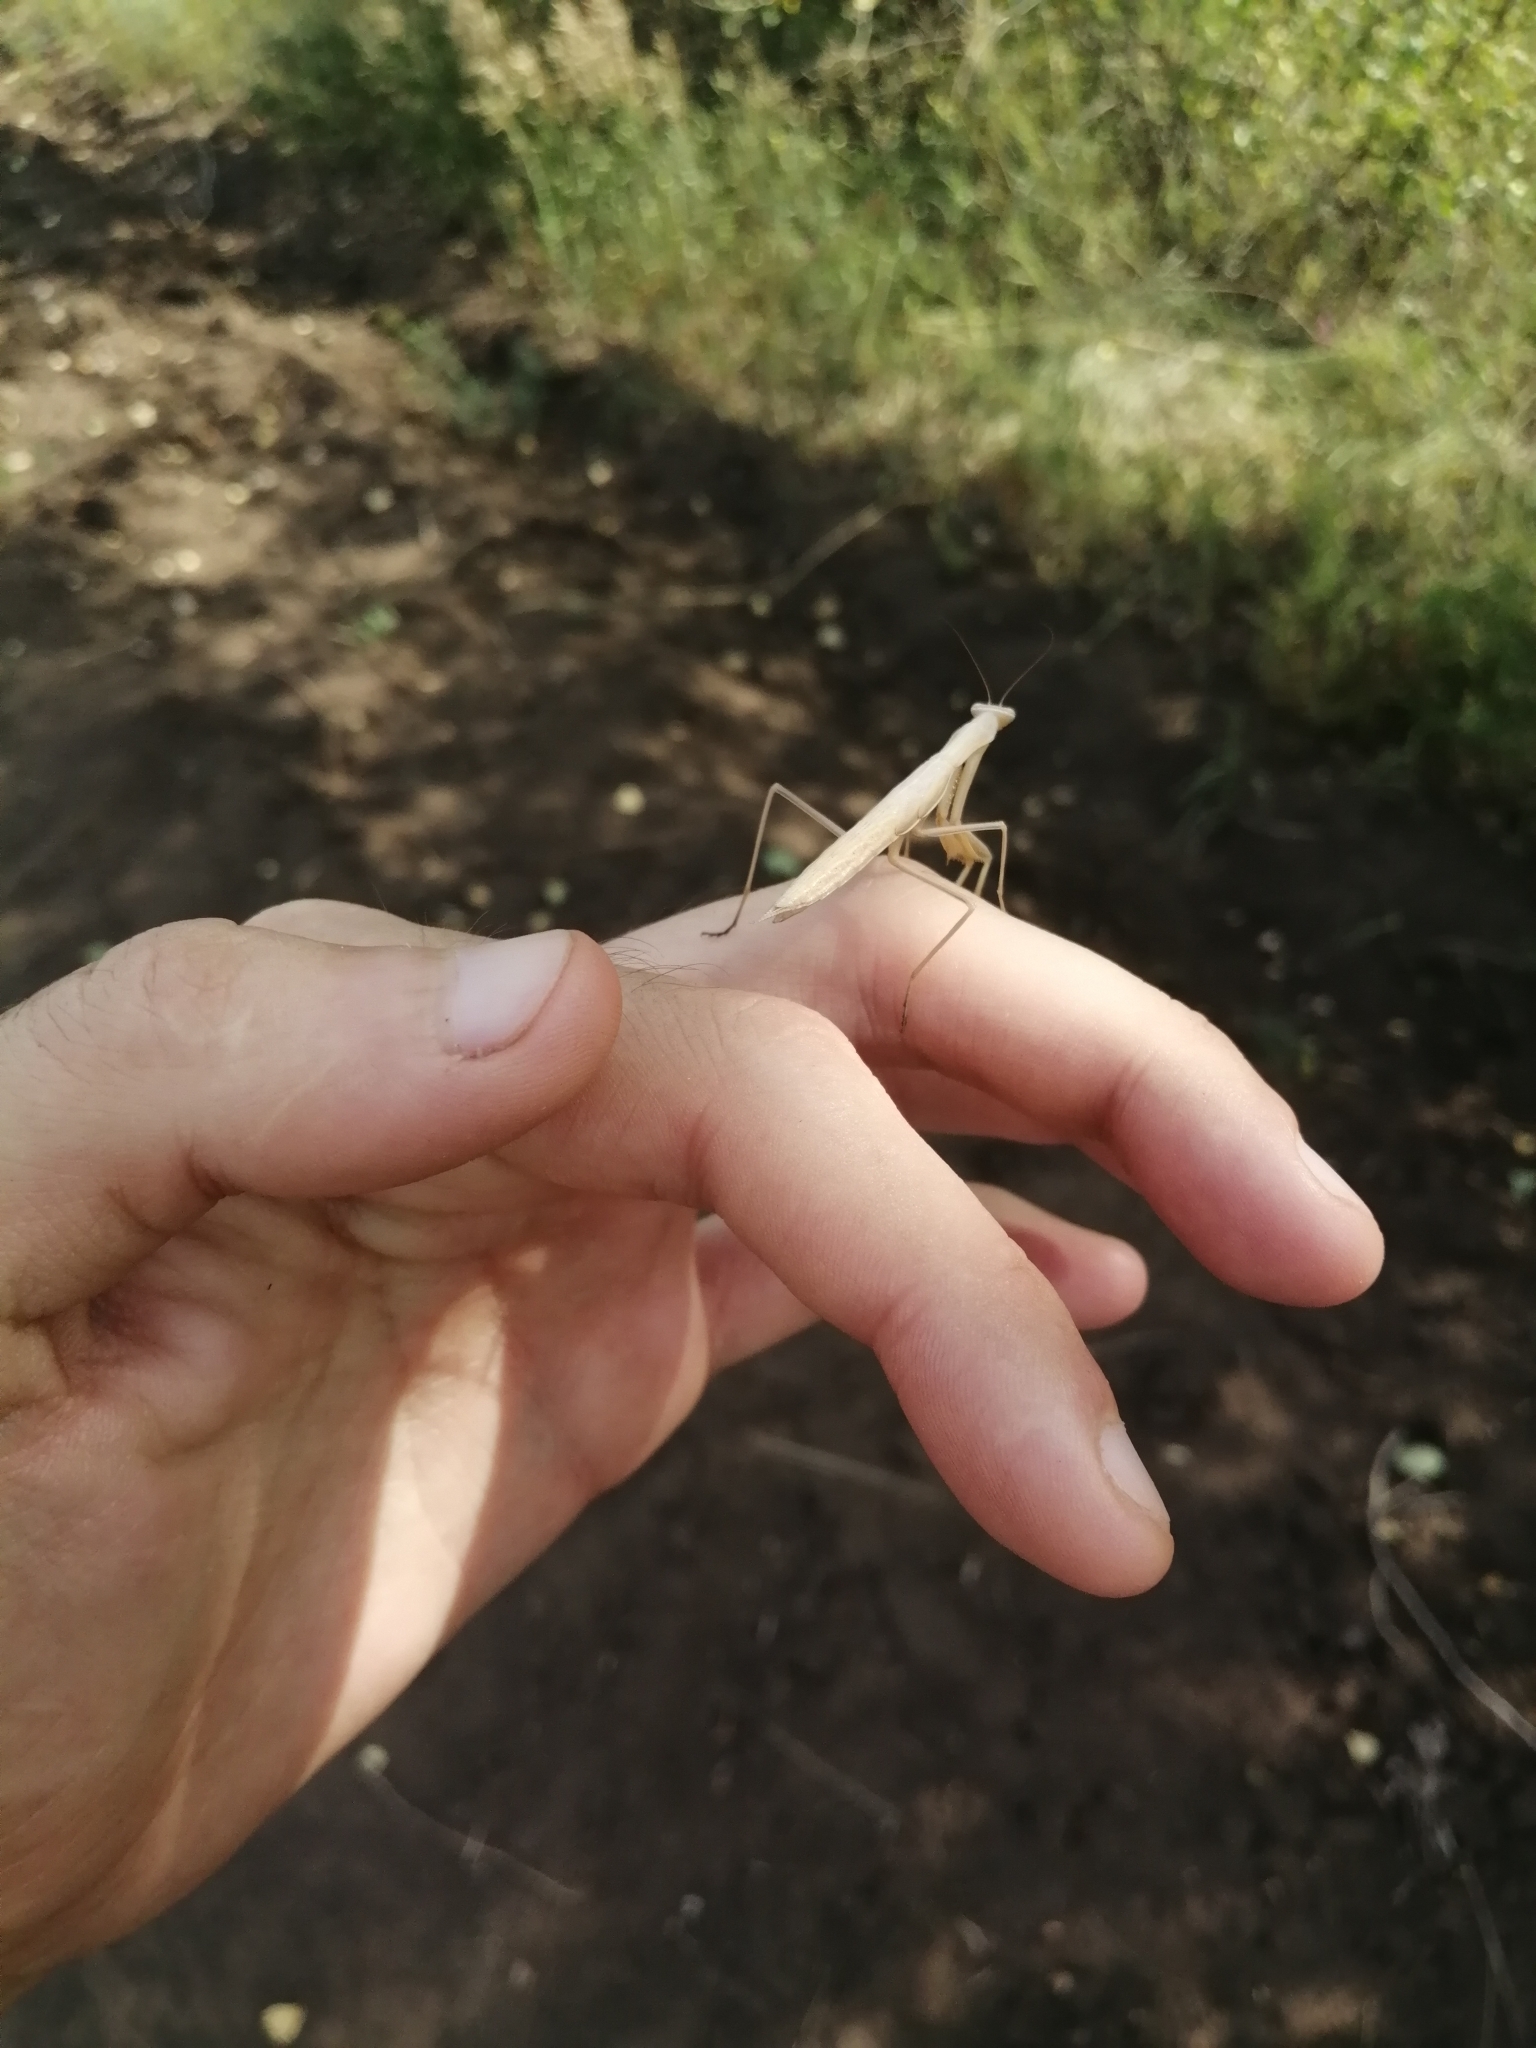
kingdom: Animalia
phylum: Arthropoda
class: Insecta
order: Mantodea
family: Mantidae
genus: Mantis
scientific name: Mantis religiosa
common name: Praying mantis
